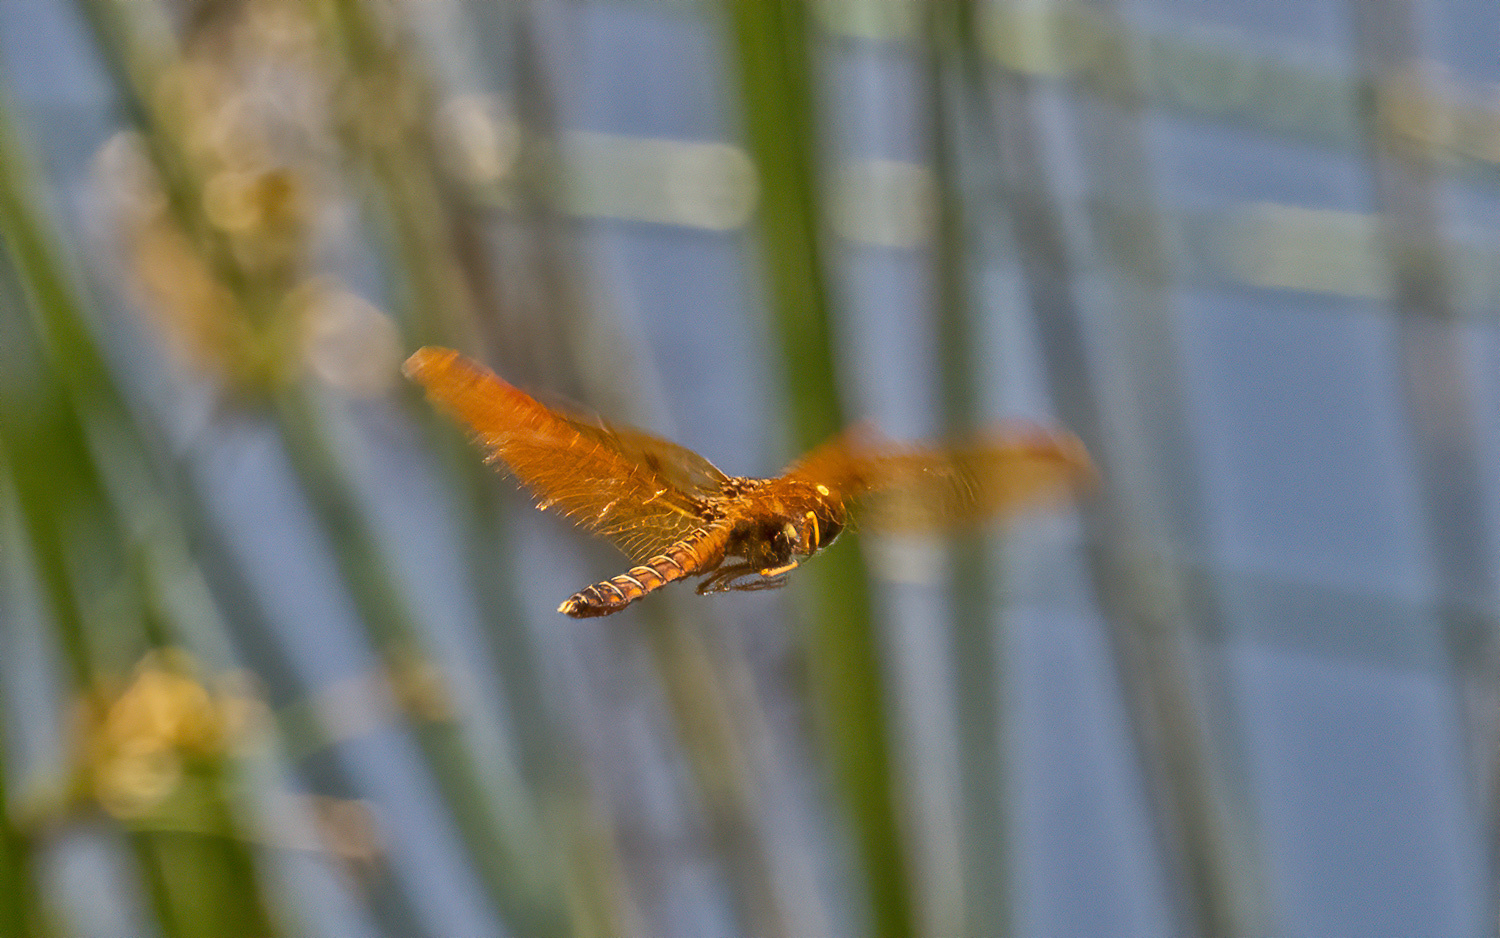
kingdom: Animalia
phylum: Arthropoda
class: Insecta
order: Odonata
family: Libellulidae
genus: Perithemis
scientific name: Perithemis tenera
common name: Eastern amberwing
